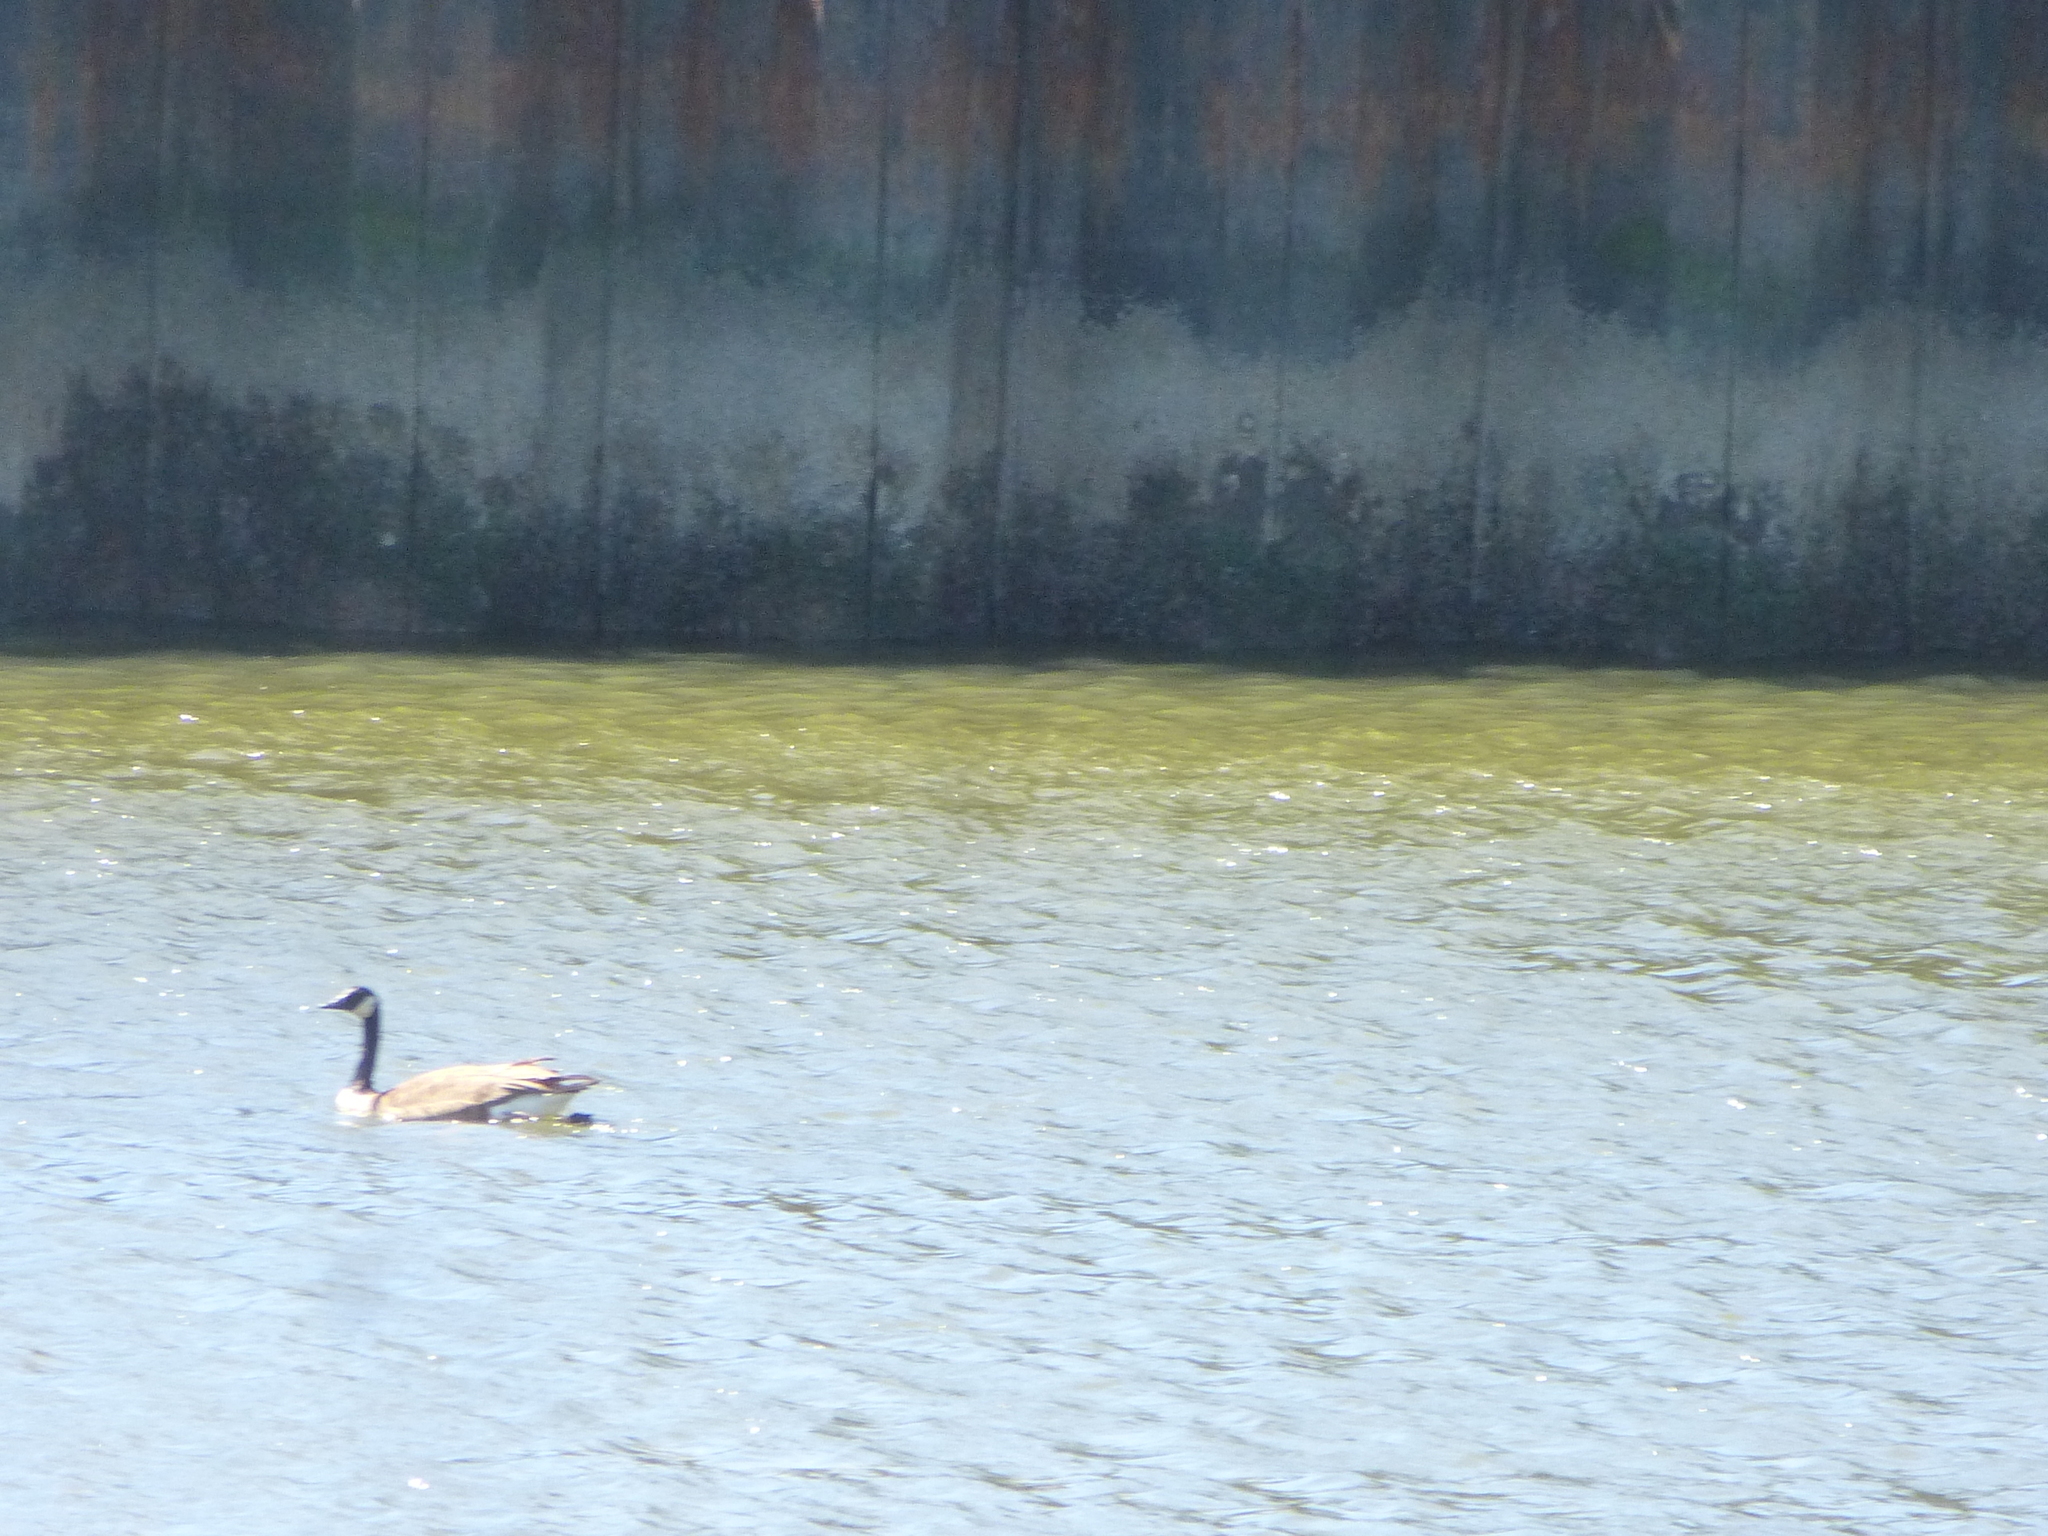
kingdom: Animalia
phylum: Chordata
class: Aves
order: Anseriformes
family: Anatidae
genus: Branta
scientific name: Branta canadensis
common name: Canada goose
